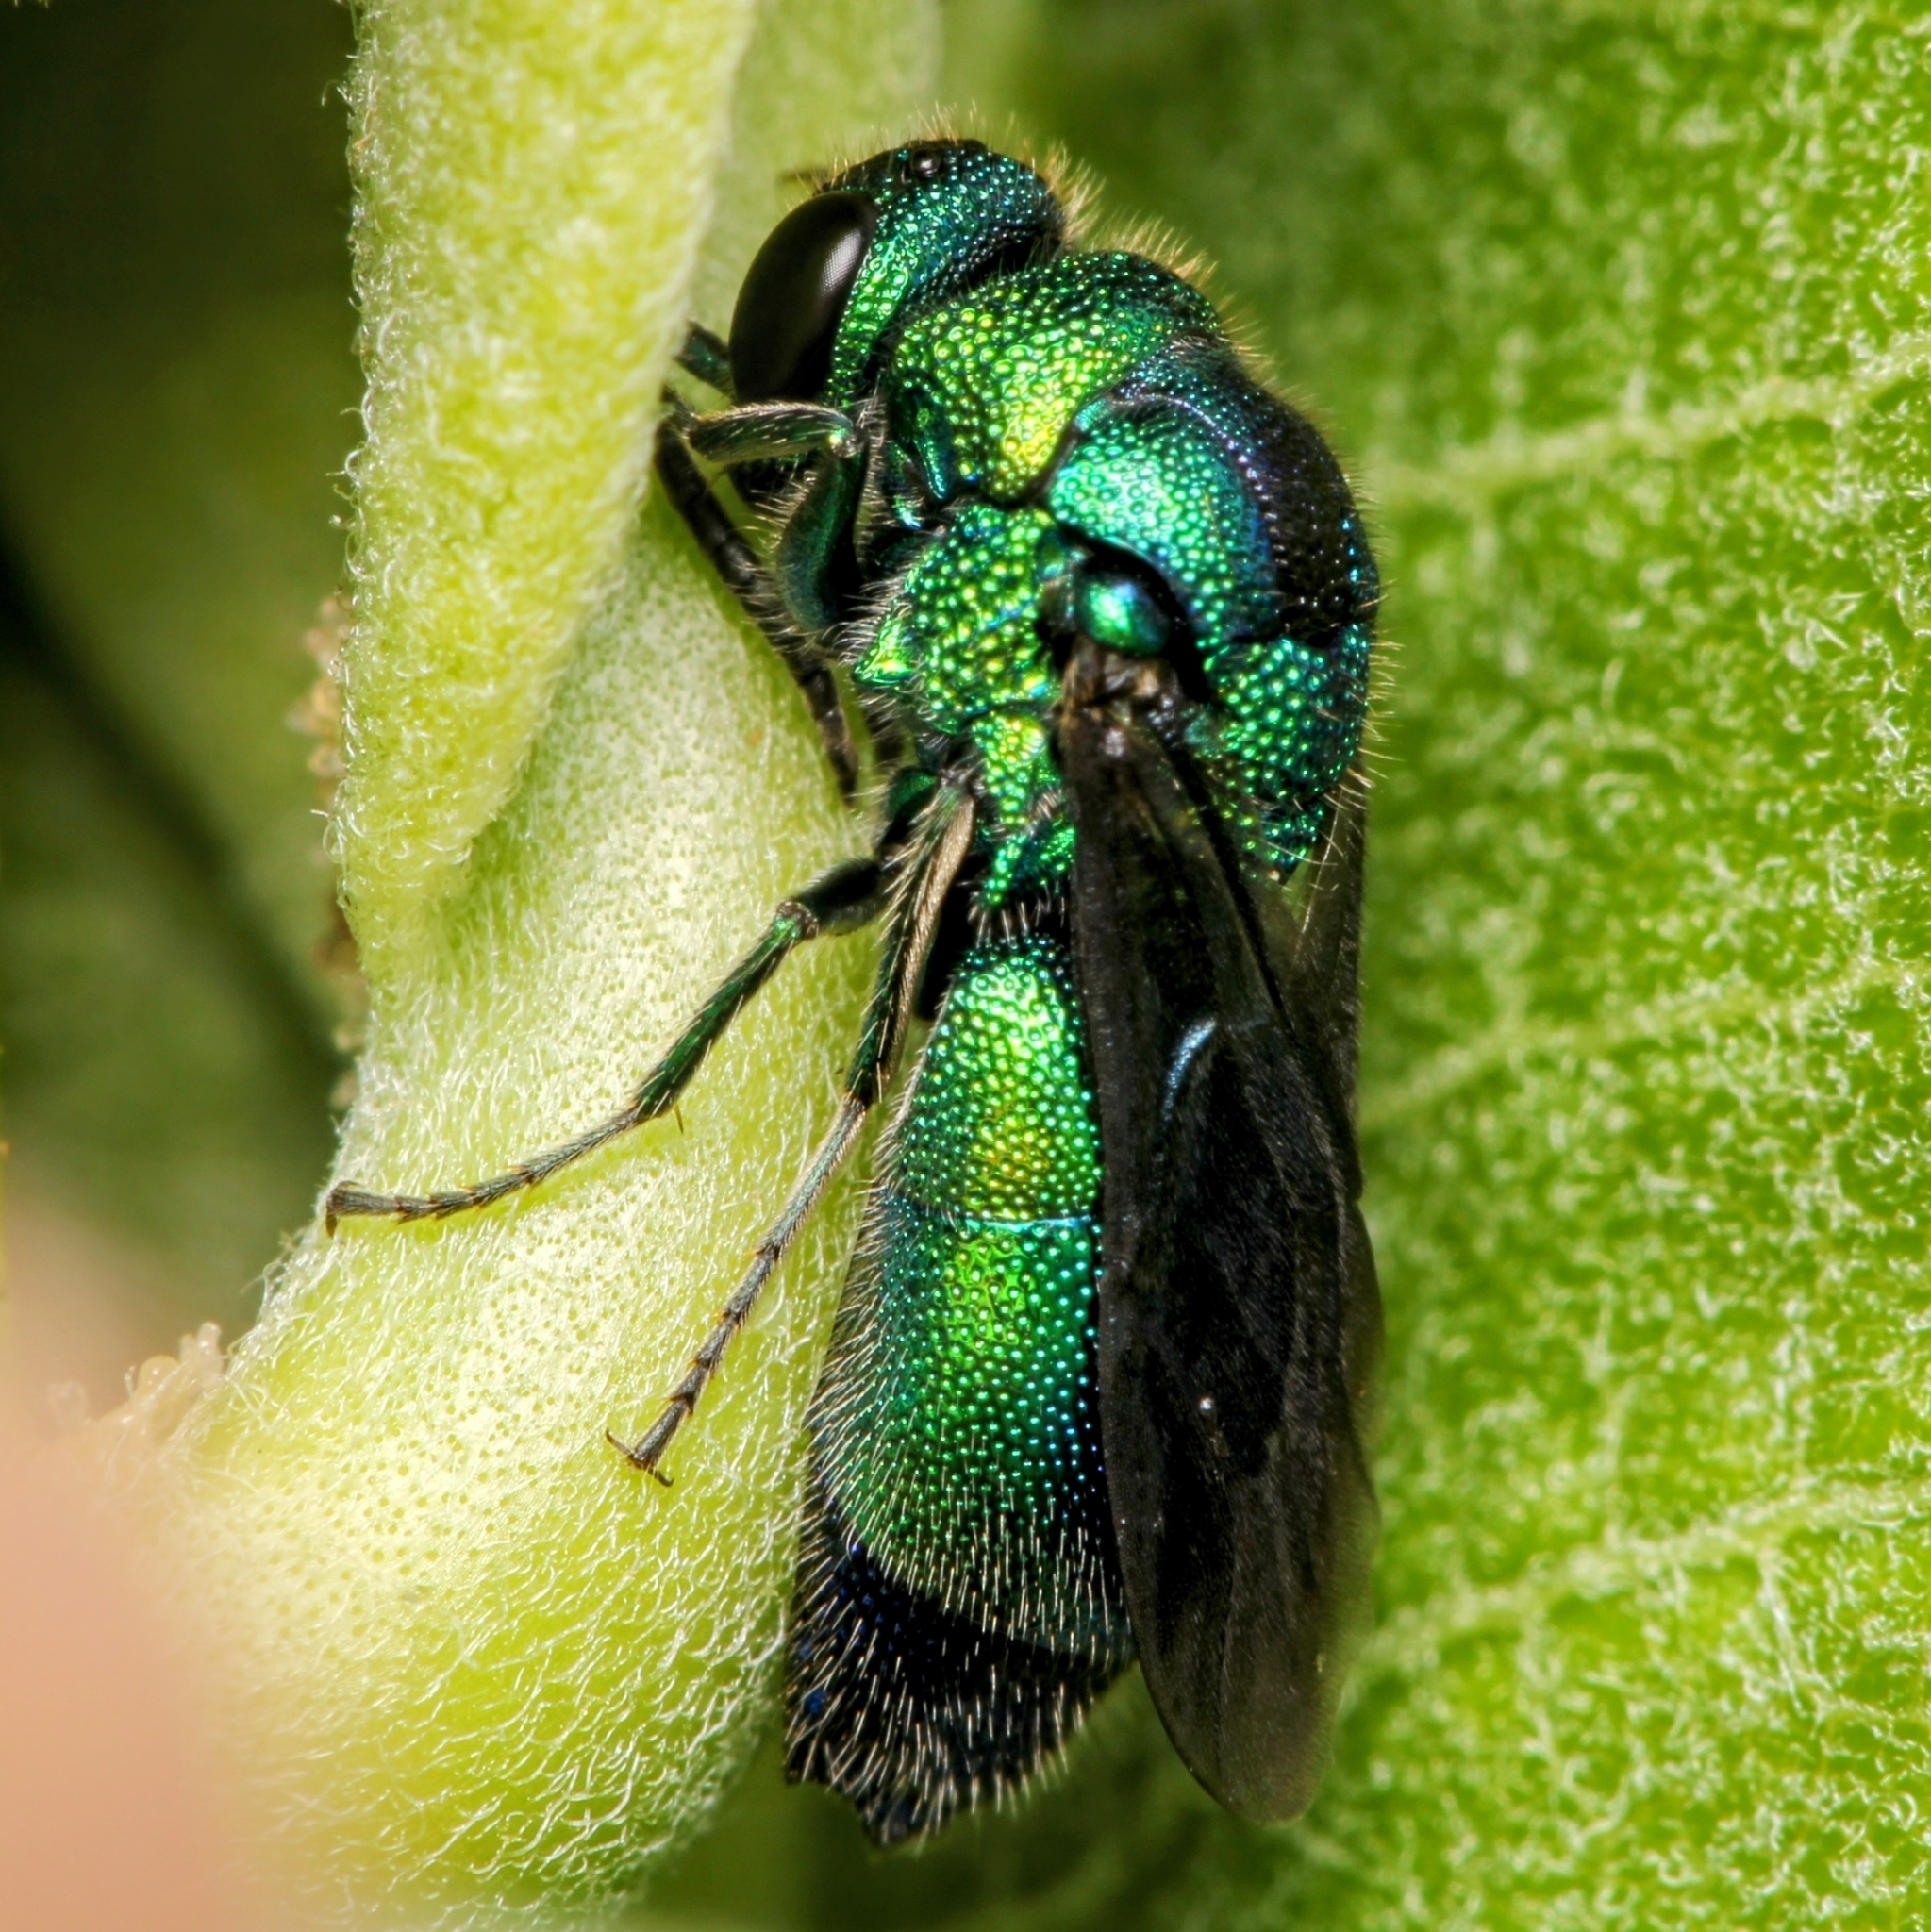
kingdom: Animalia
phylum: Arthropoda
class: Insecta
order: Hymenoptera
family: Chrysididae
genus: Chrysis
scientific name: Chrysis angolensis
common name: Cuckoo wasp
